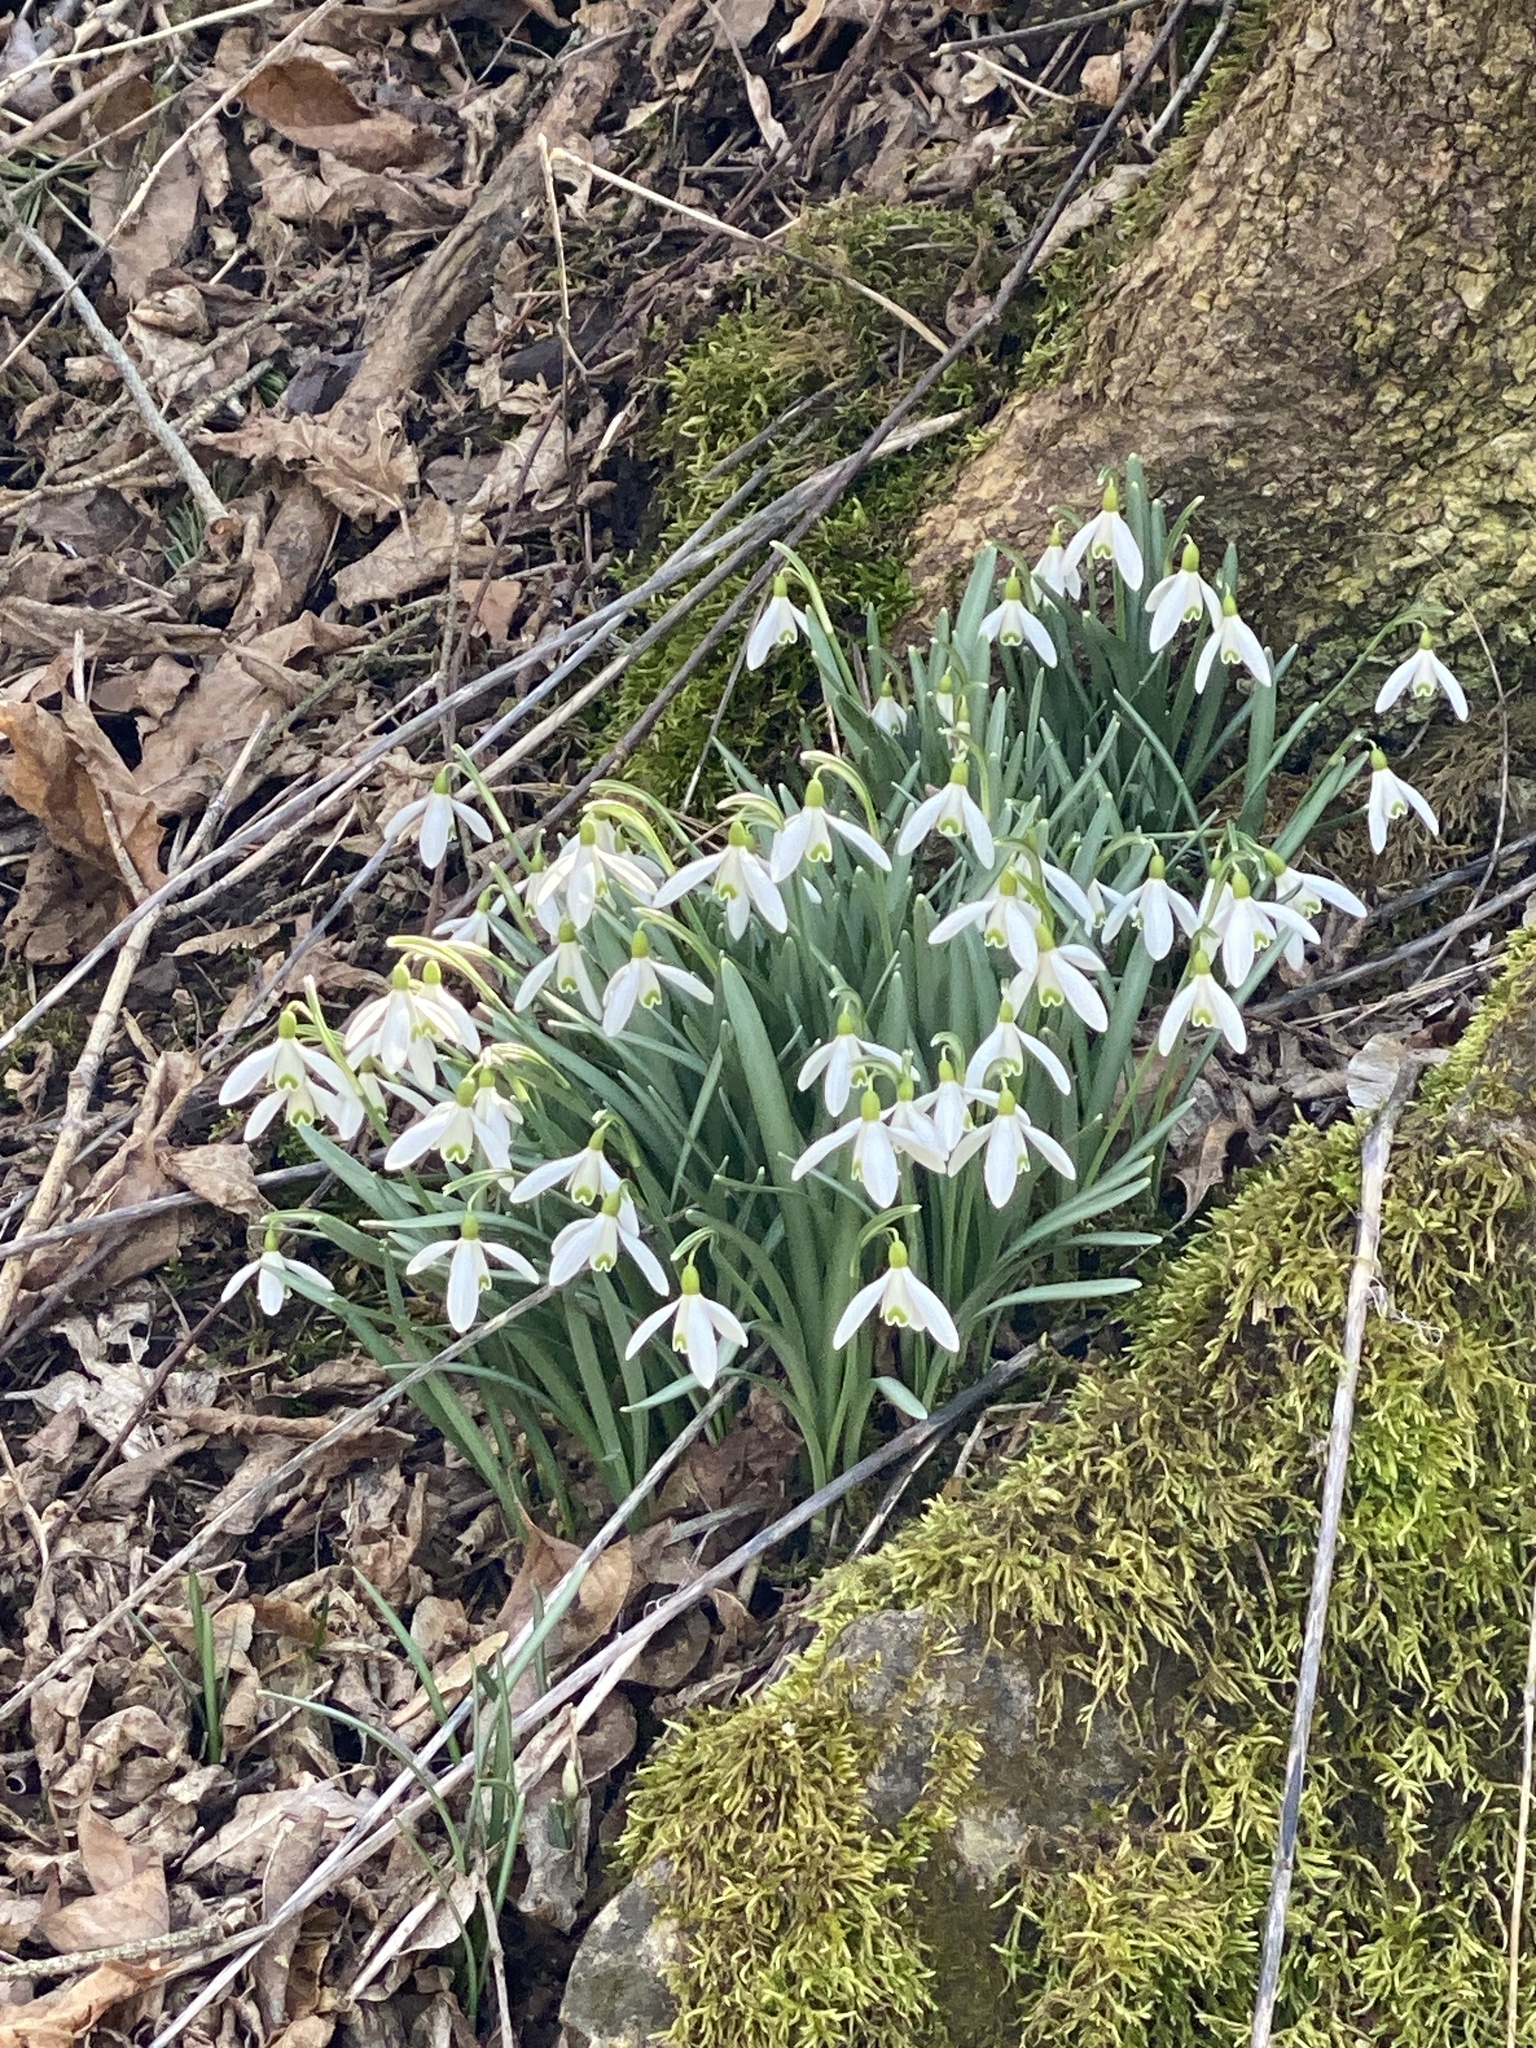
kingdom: Plantae
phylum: Tracheophyta
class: Liliopsida
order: Asparagales
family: Amaryllidaceae
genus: Galanthus
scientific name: Galanthus nivalis
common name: Snowdrop
